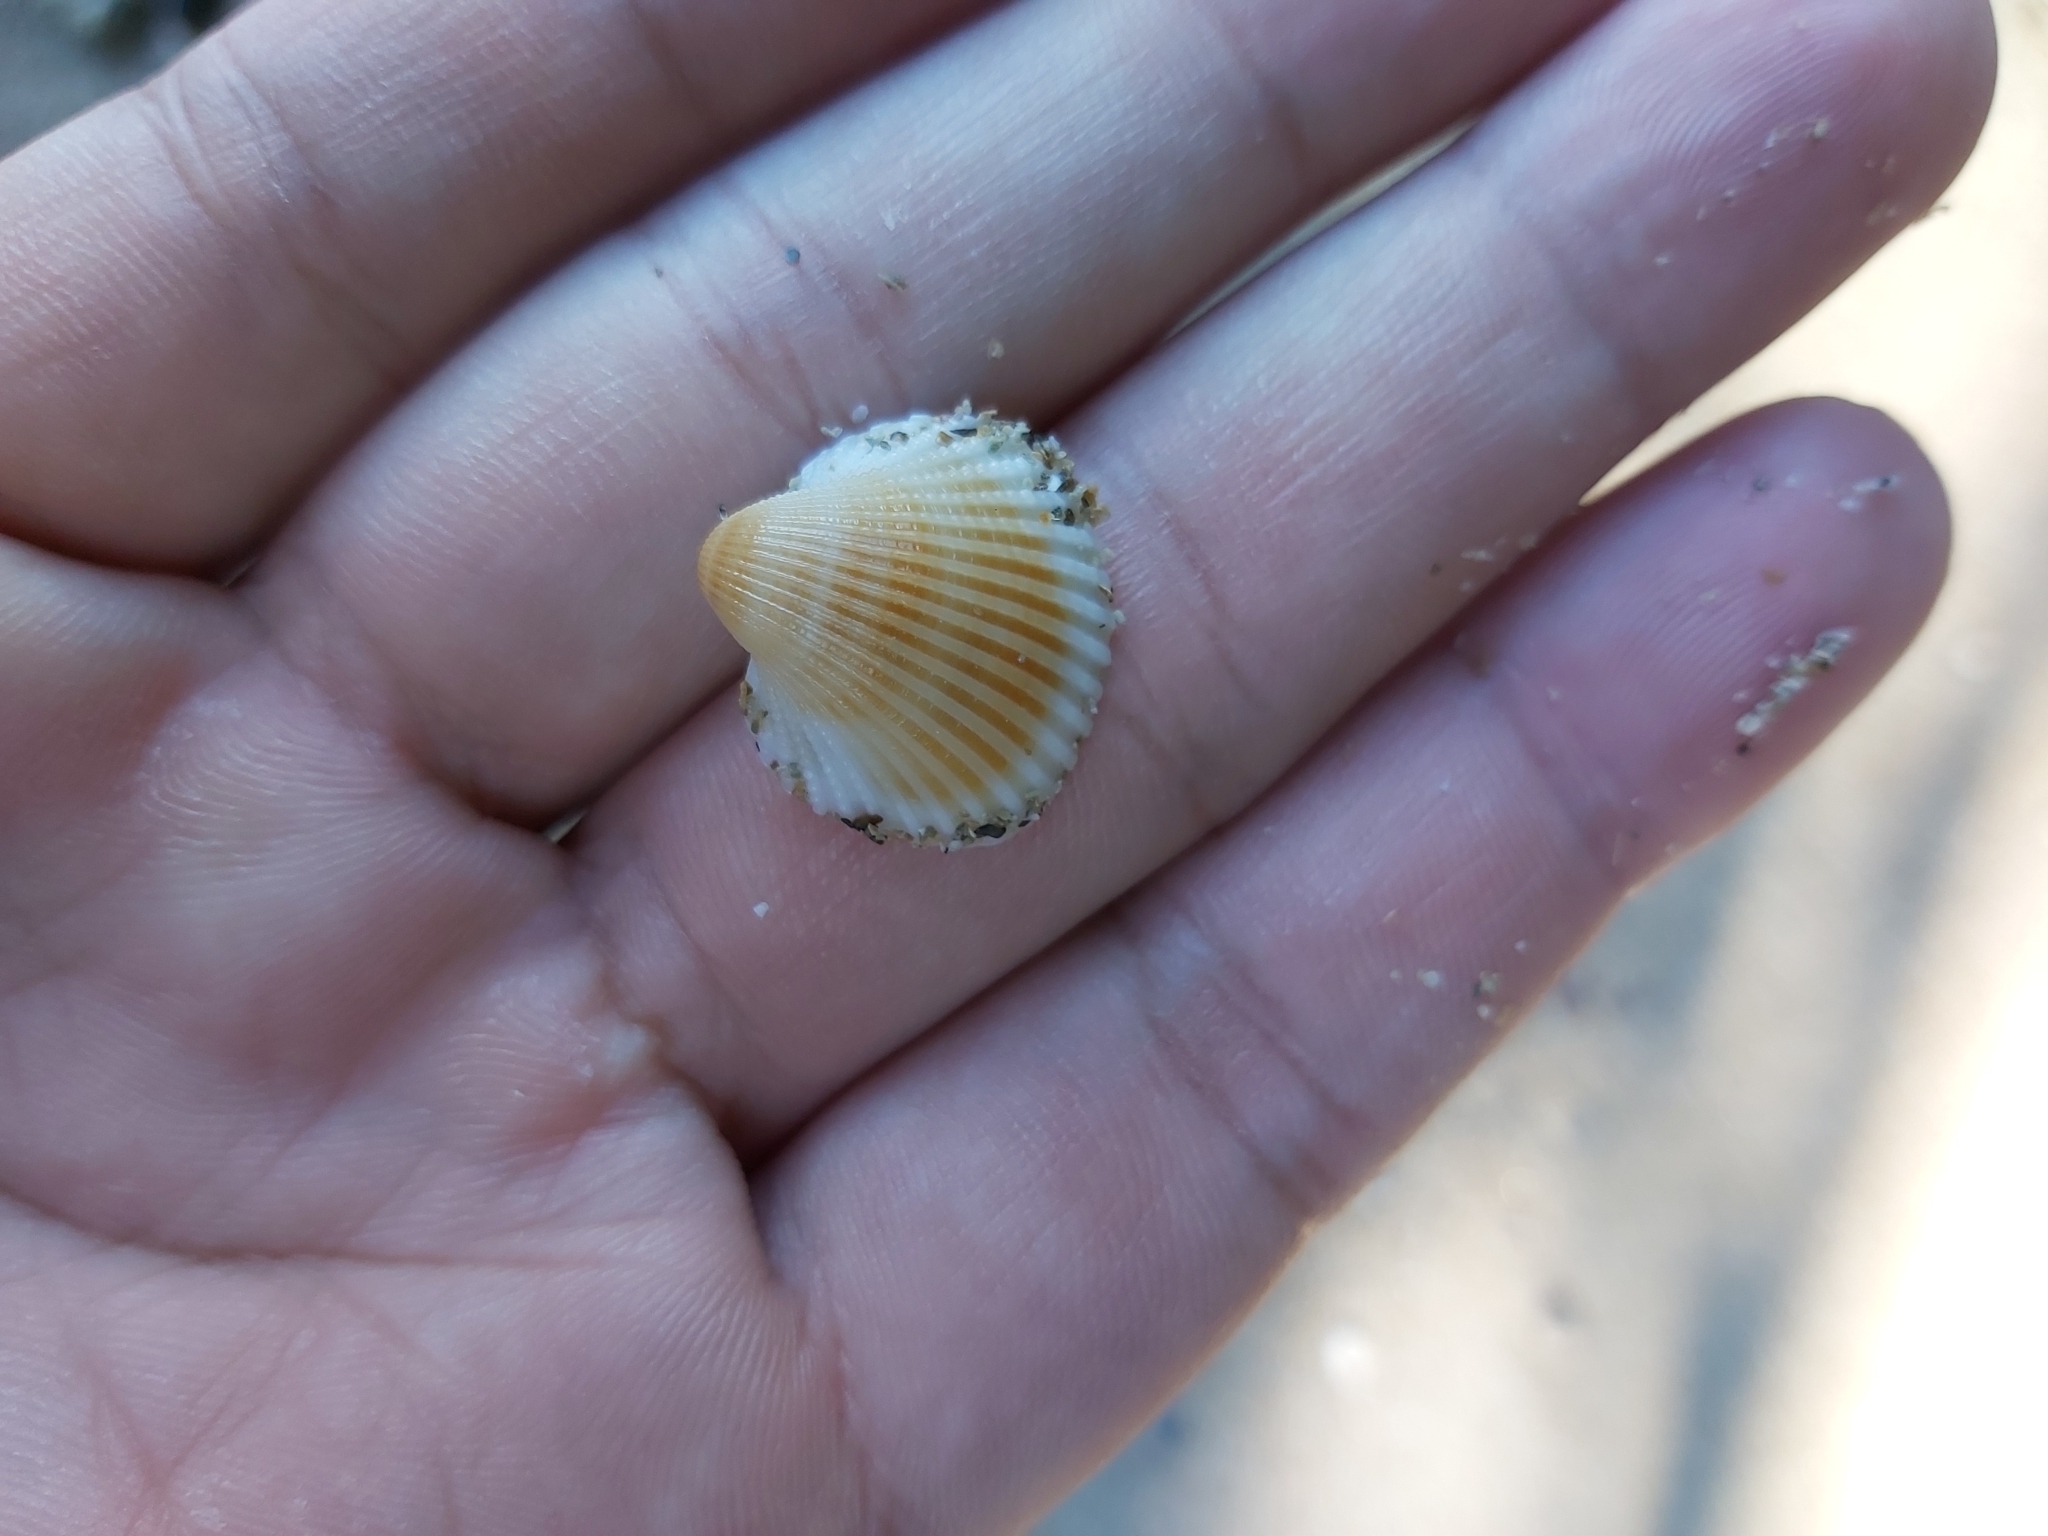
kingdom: Animalia
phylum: Mollusca
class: Bivalvia
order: Arcida
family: Arcidae
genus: Anadara
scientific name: Anadara pilula
